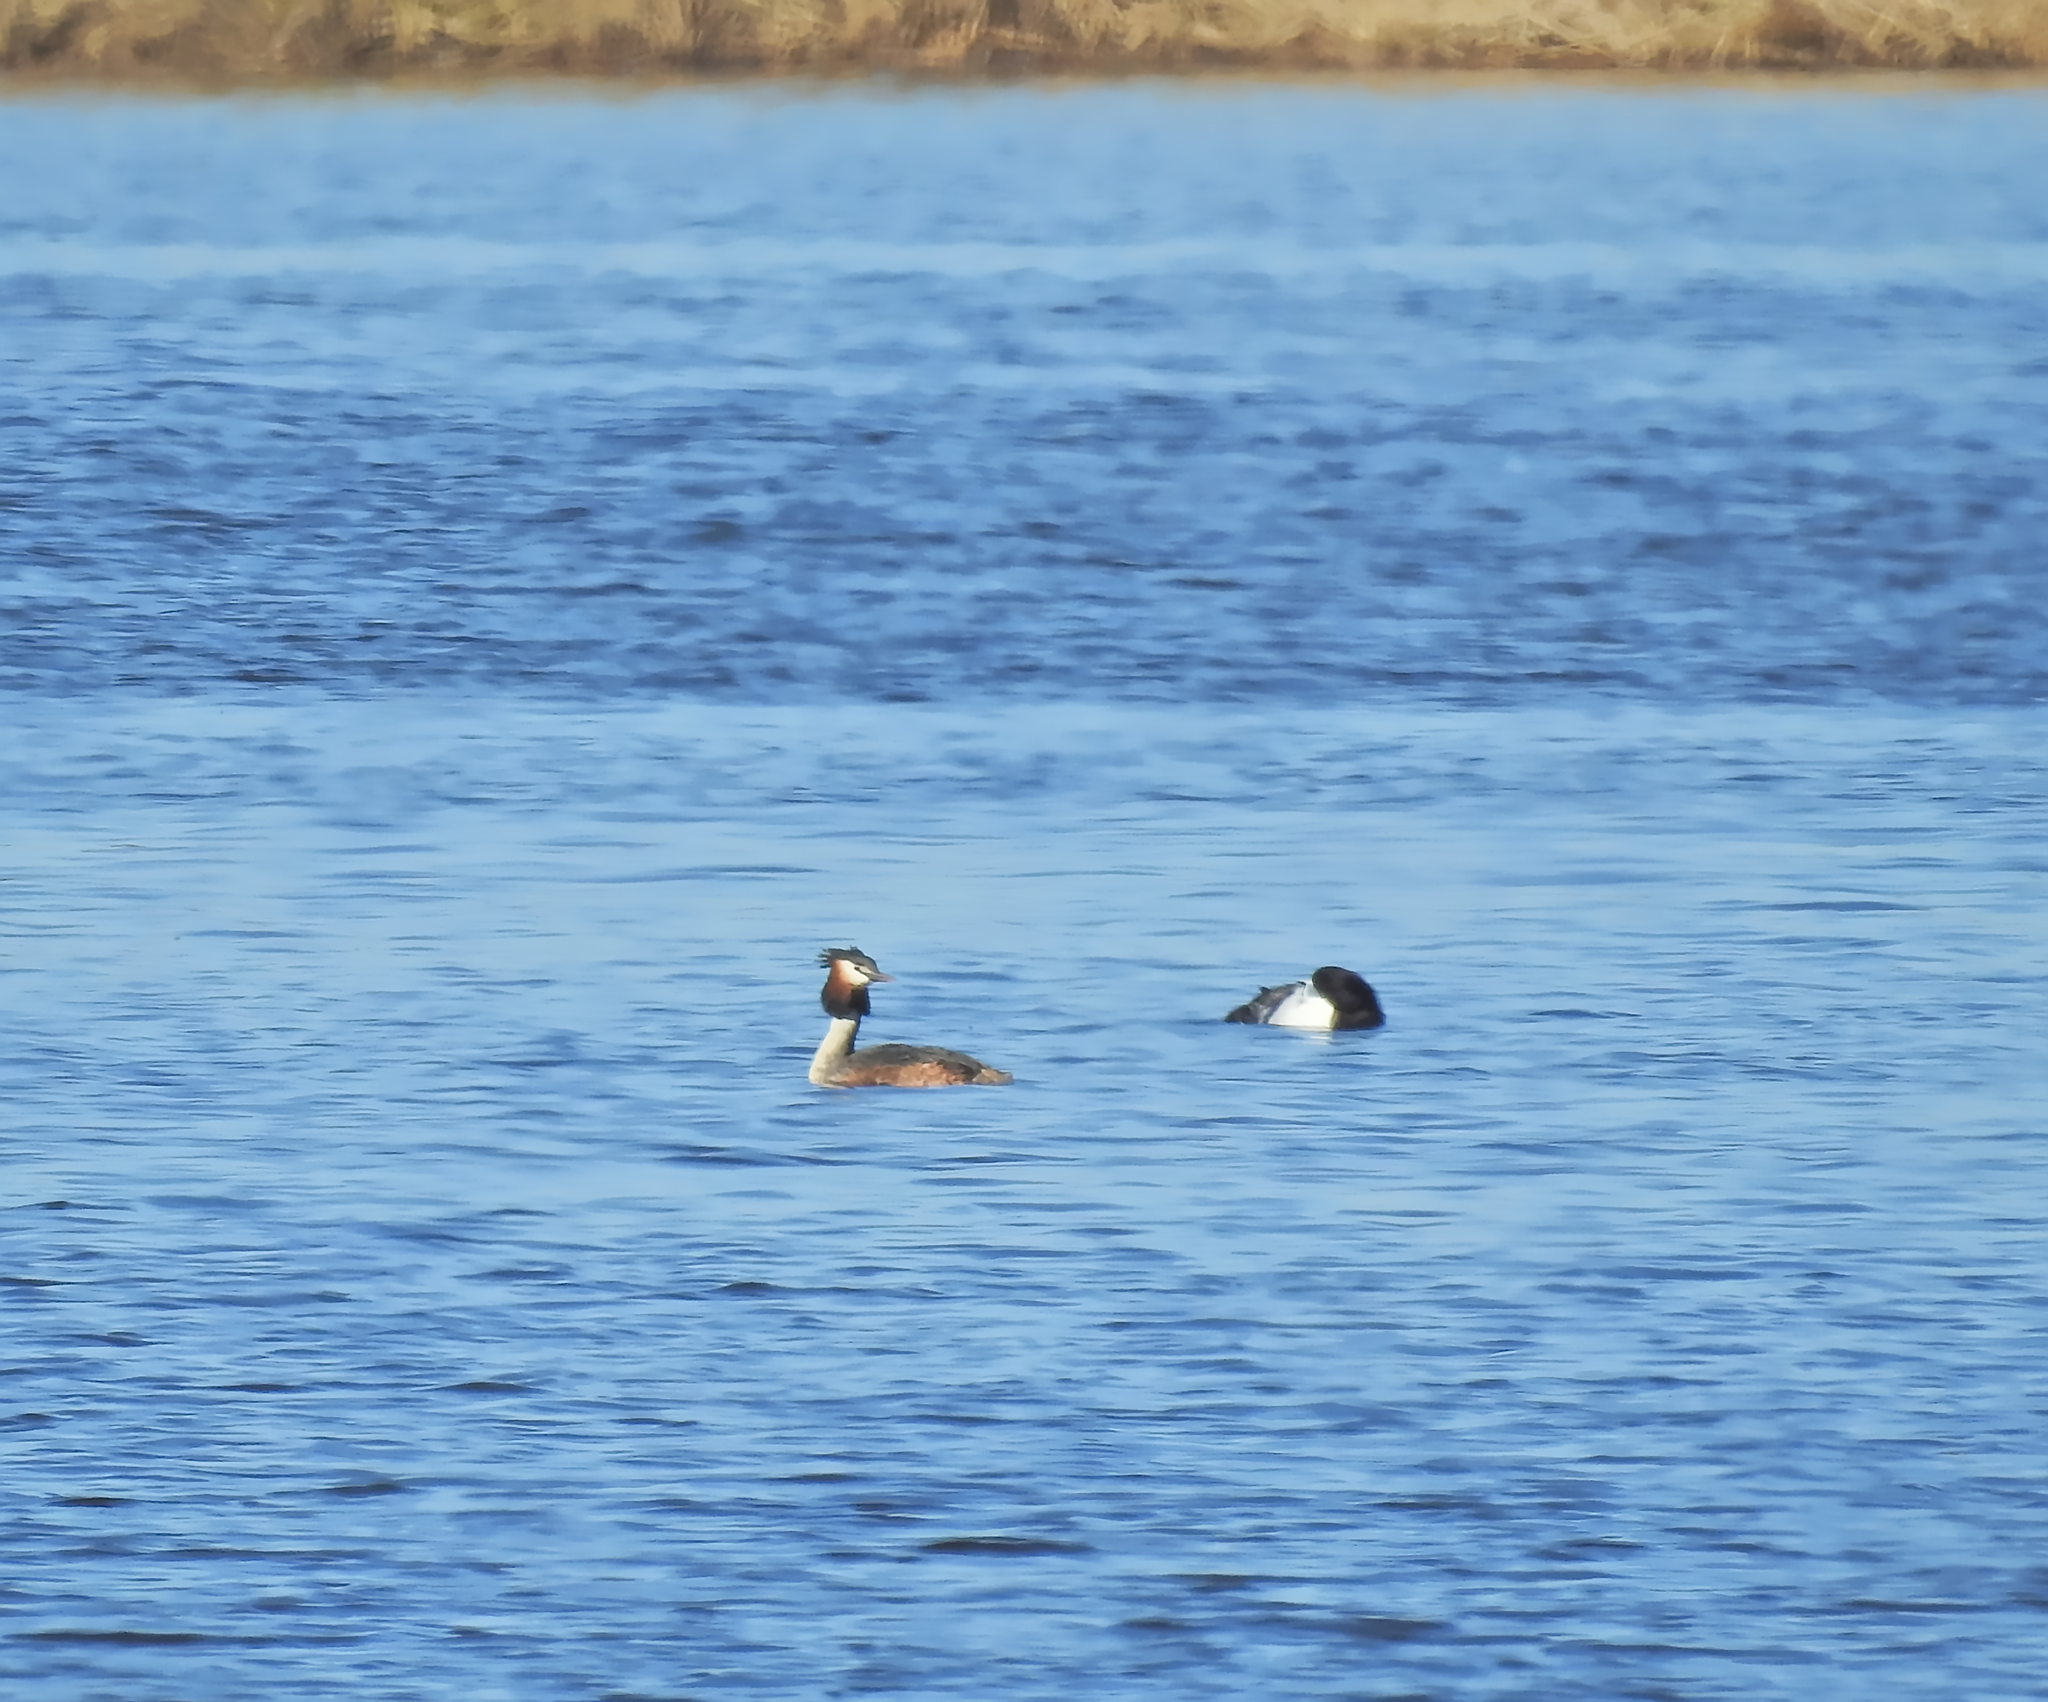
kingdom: Animalia
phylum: Chordata
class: Aves
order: Podicipediformes
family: Podicipedidae
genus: Podiceps
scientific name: Podiceps cristatus
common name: Great crested grebe
